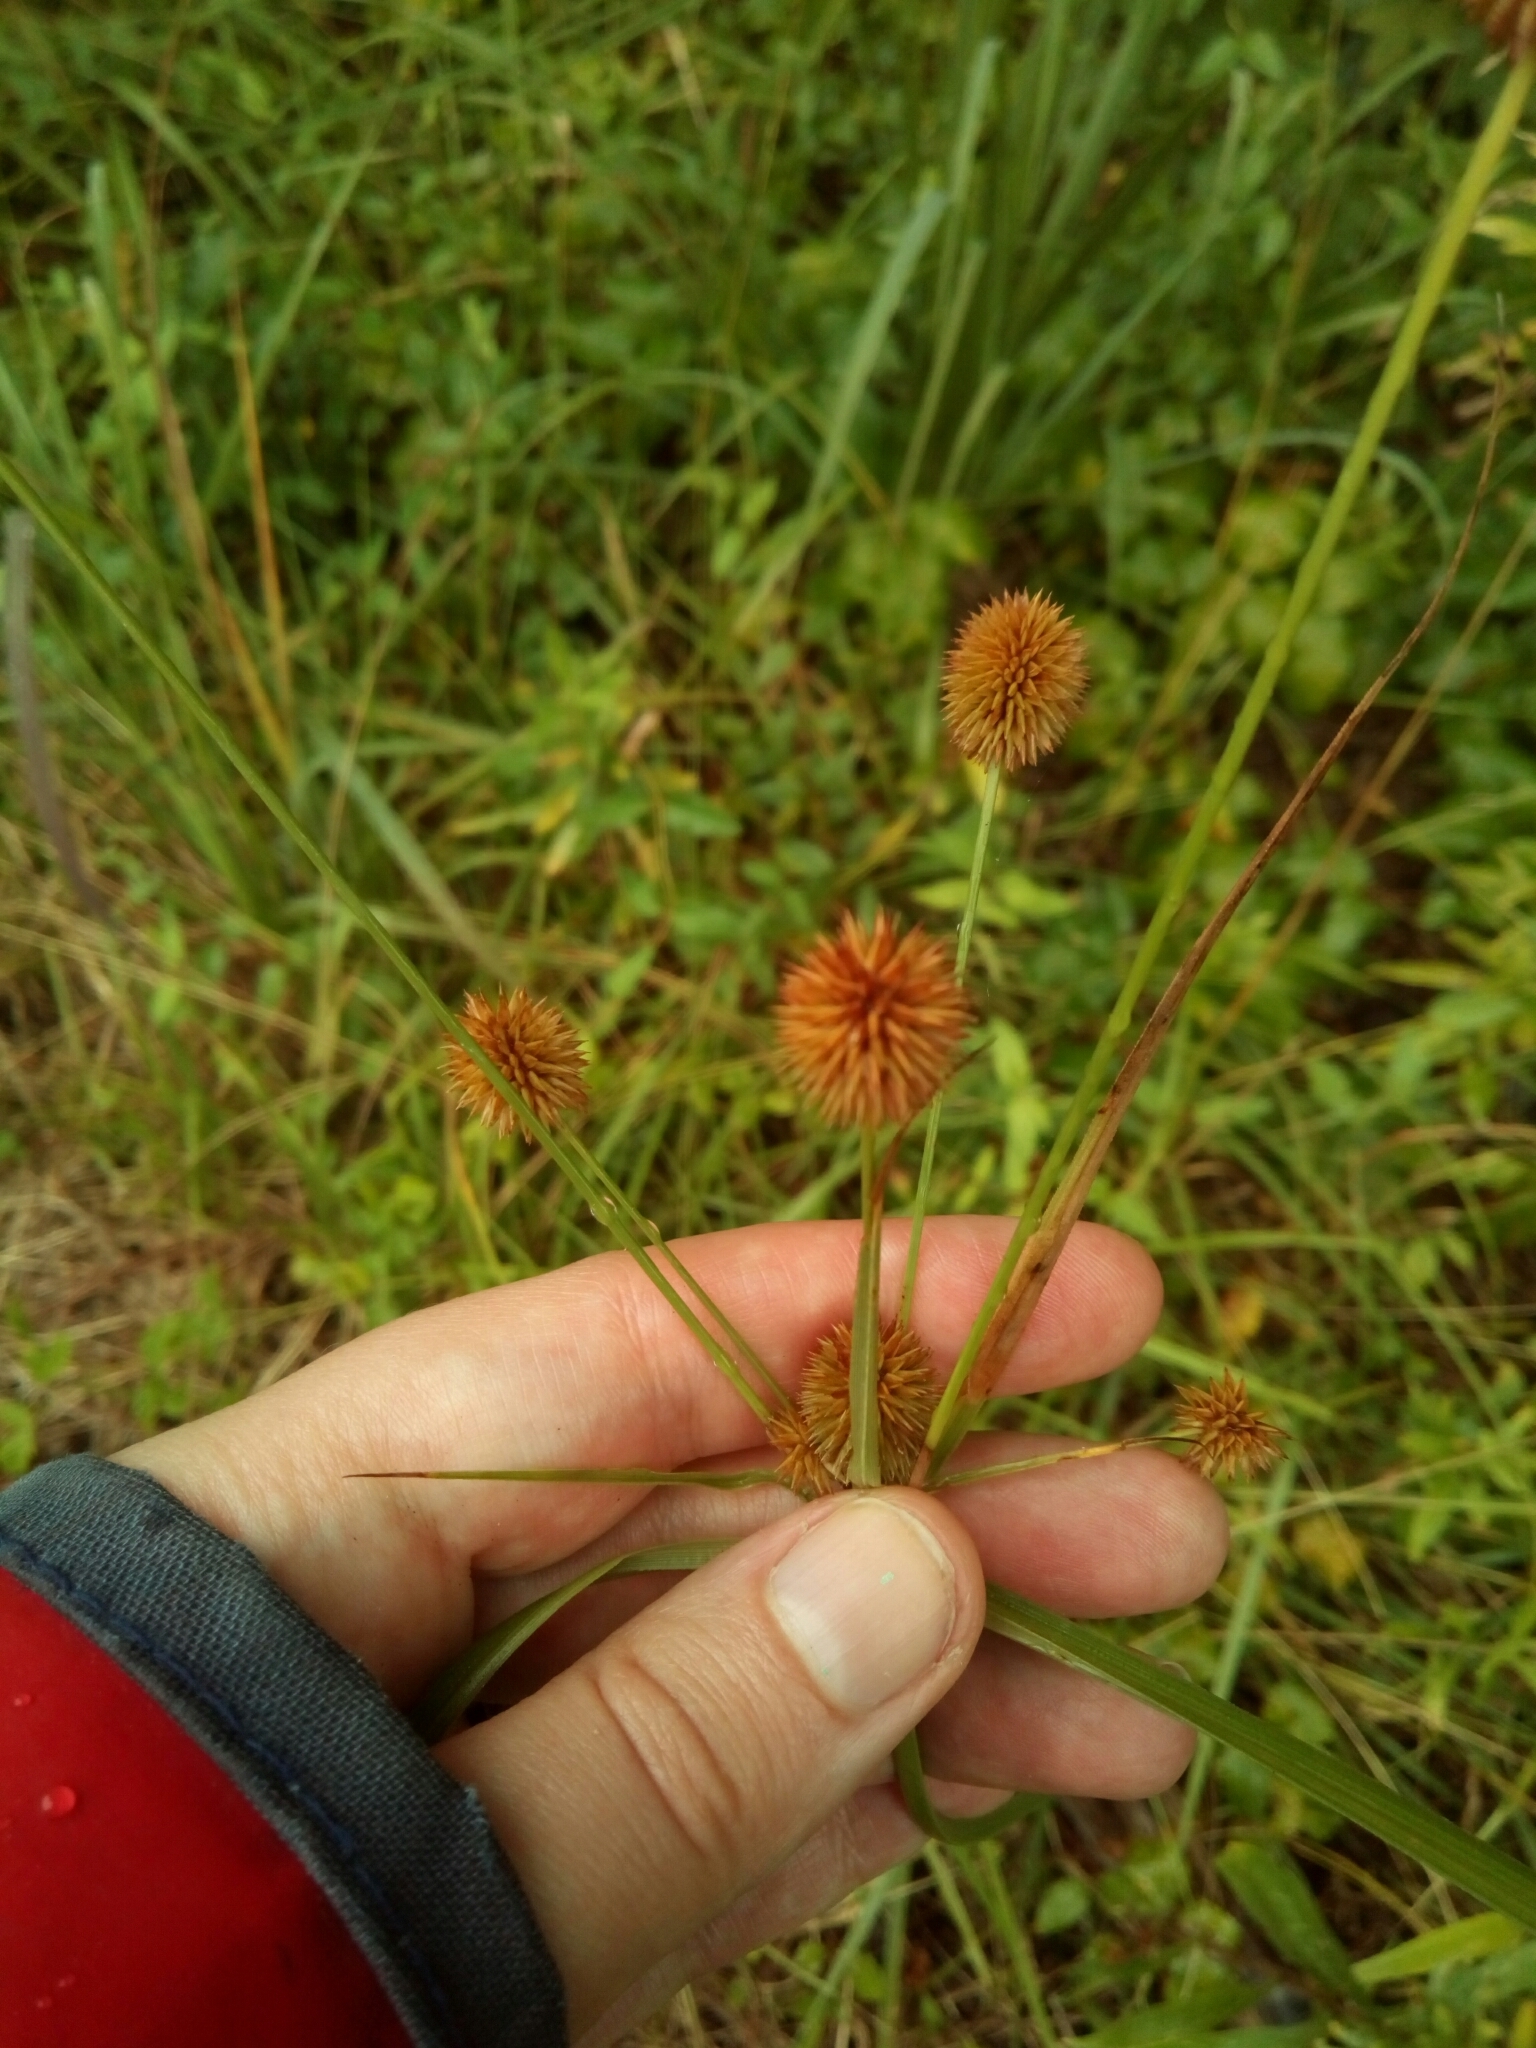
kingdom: Plantae
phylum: Tracheophyta
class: Liliopsida
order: Poales
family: Cyperaceae
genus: Cyperus
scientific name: Cyperus echinatus
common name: Teasel sedge
